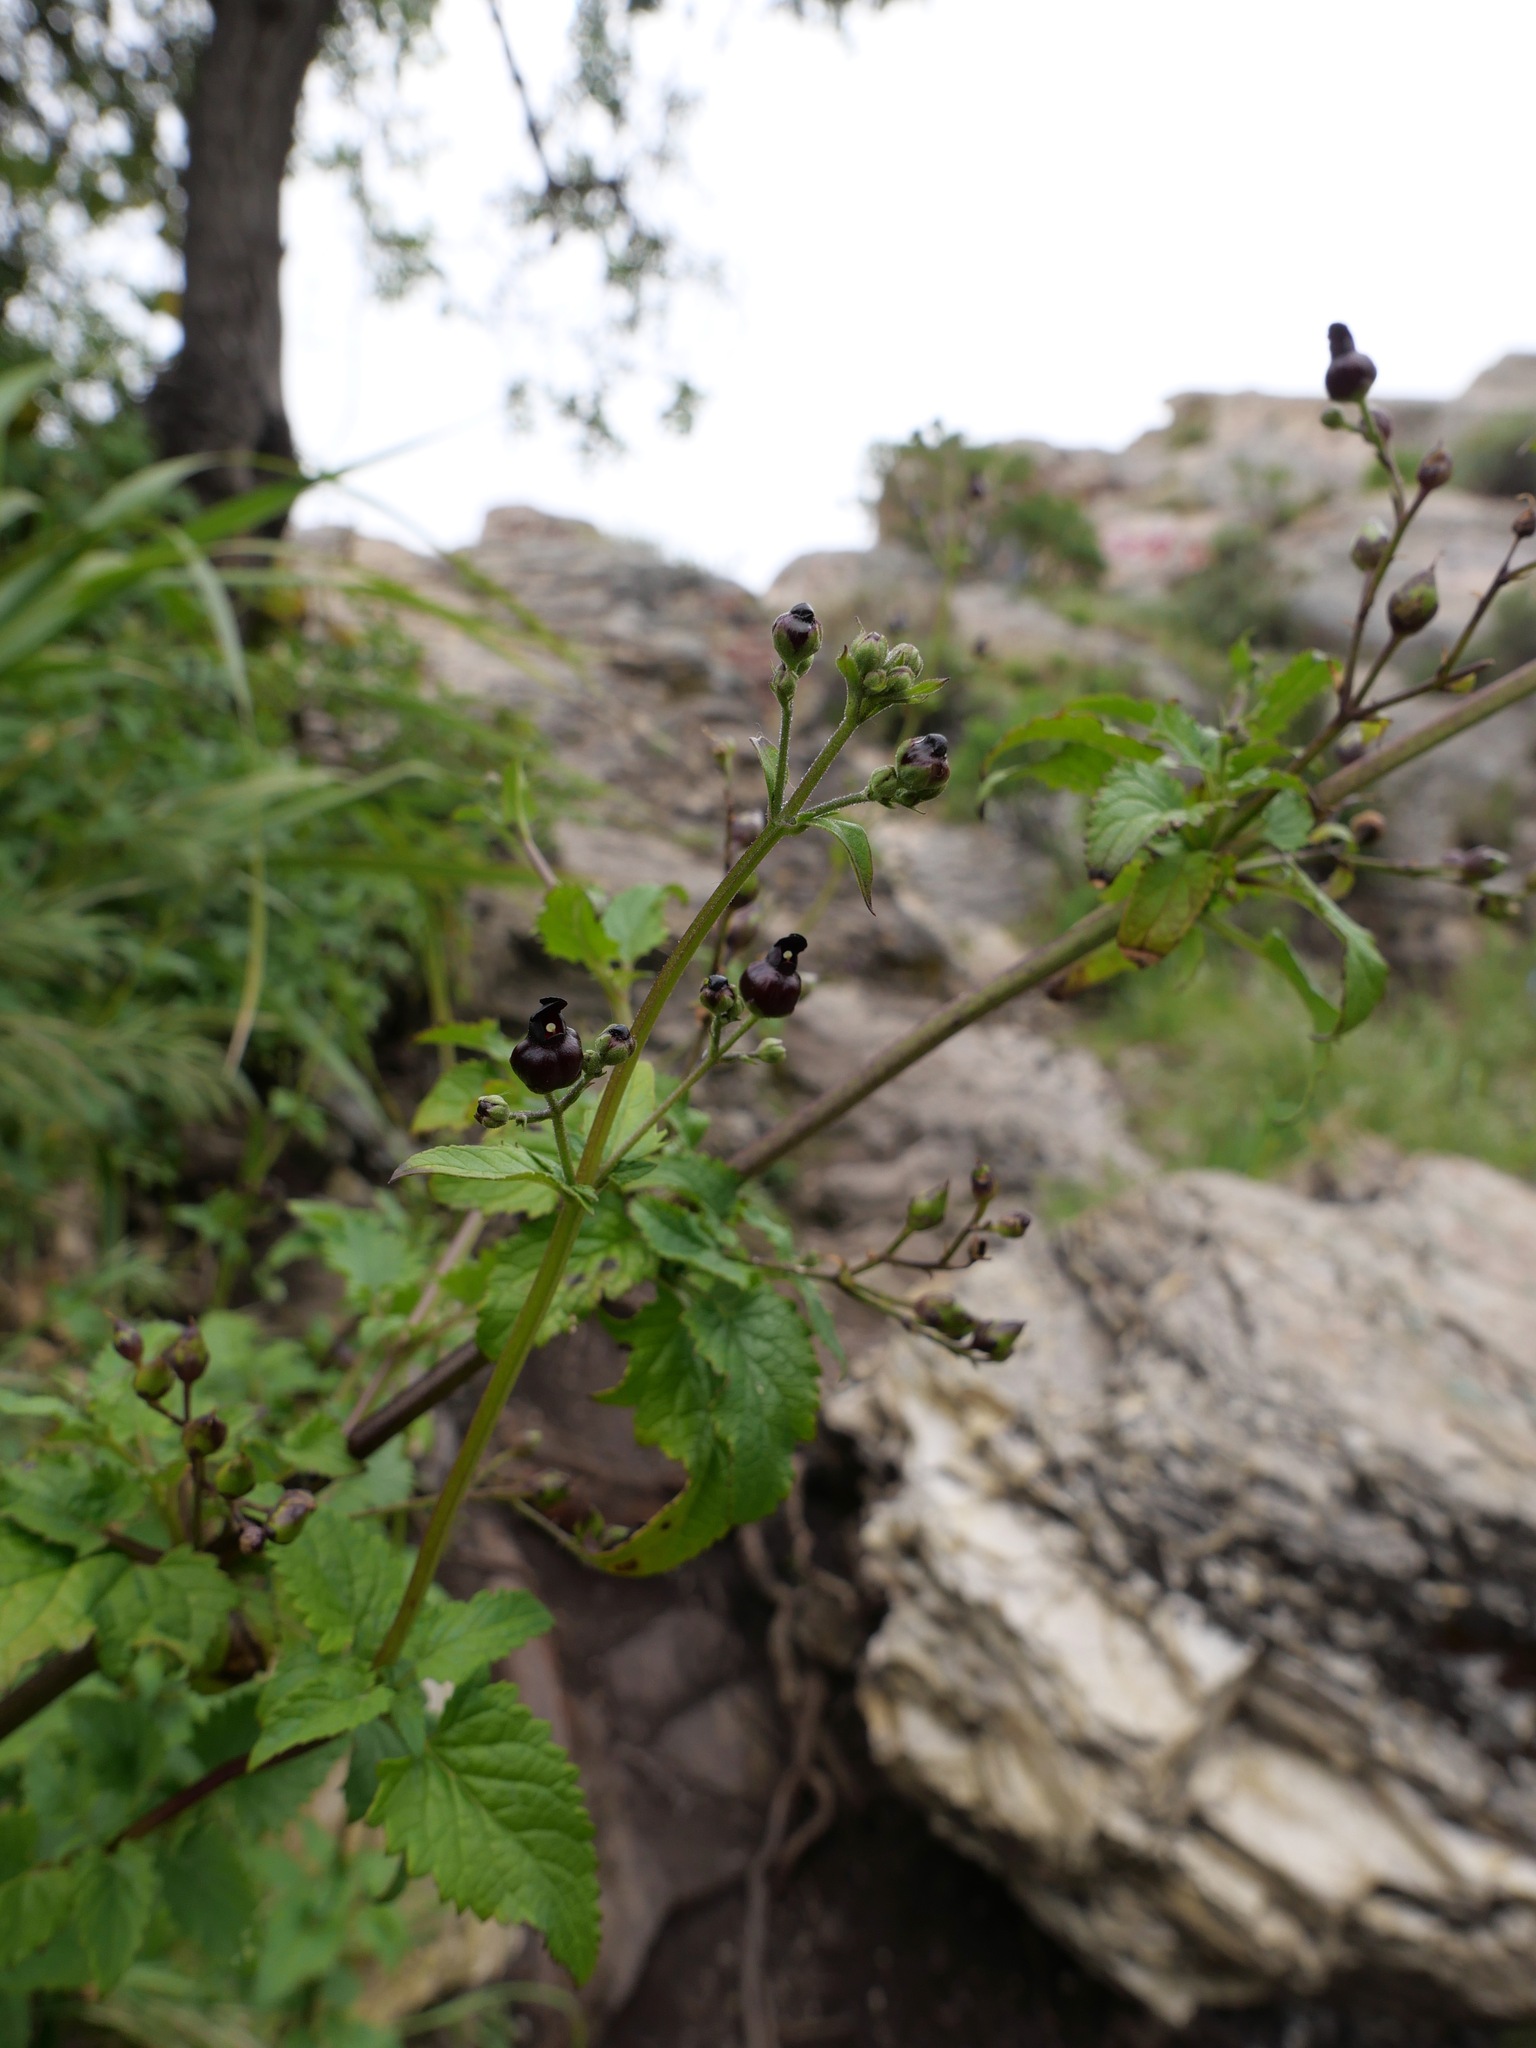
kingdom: Plantae
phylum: Tracheophyta
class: Magnoliopsida
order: Lamiales
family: Scrophulariaceae
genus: Scrophularia
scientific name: Scrophularia atrata
